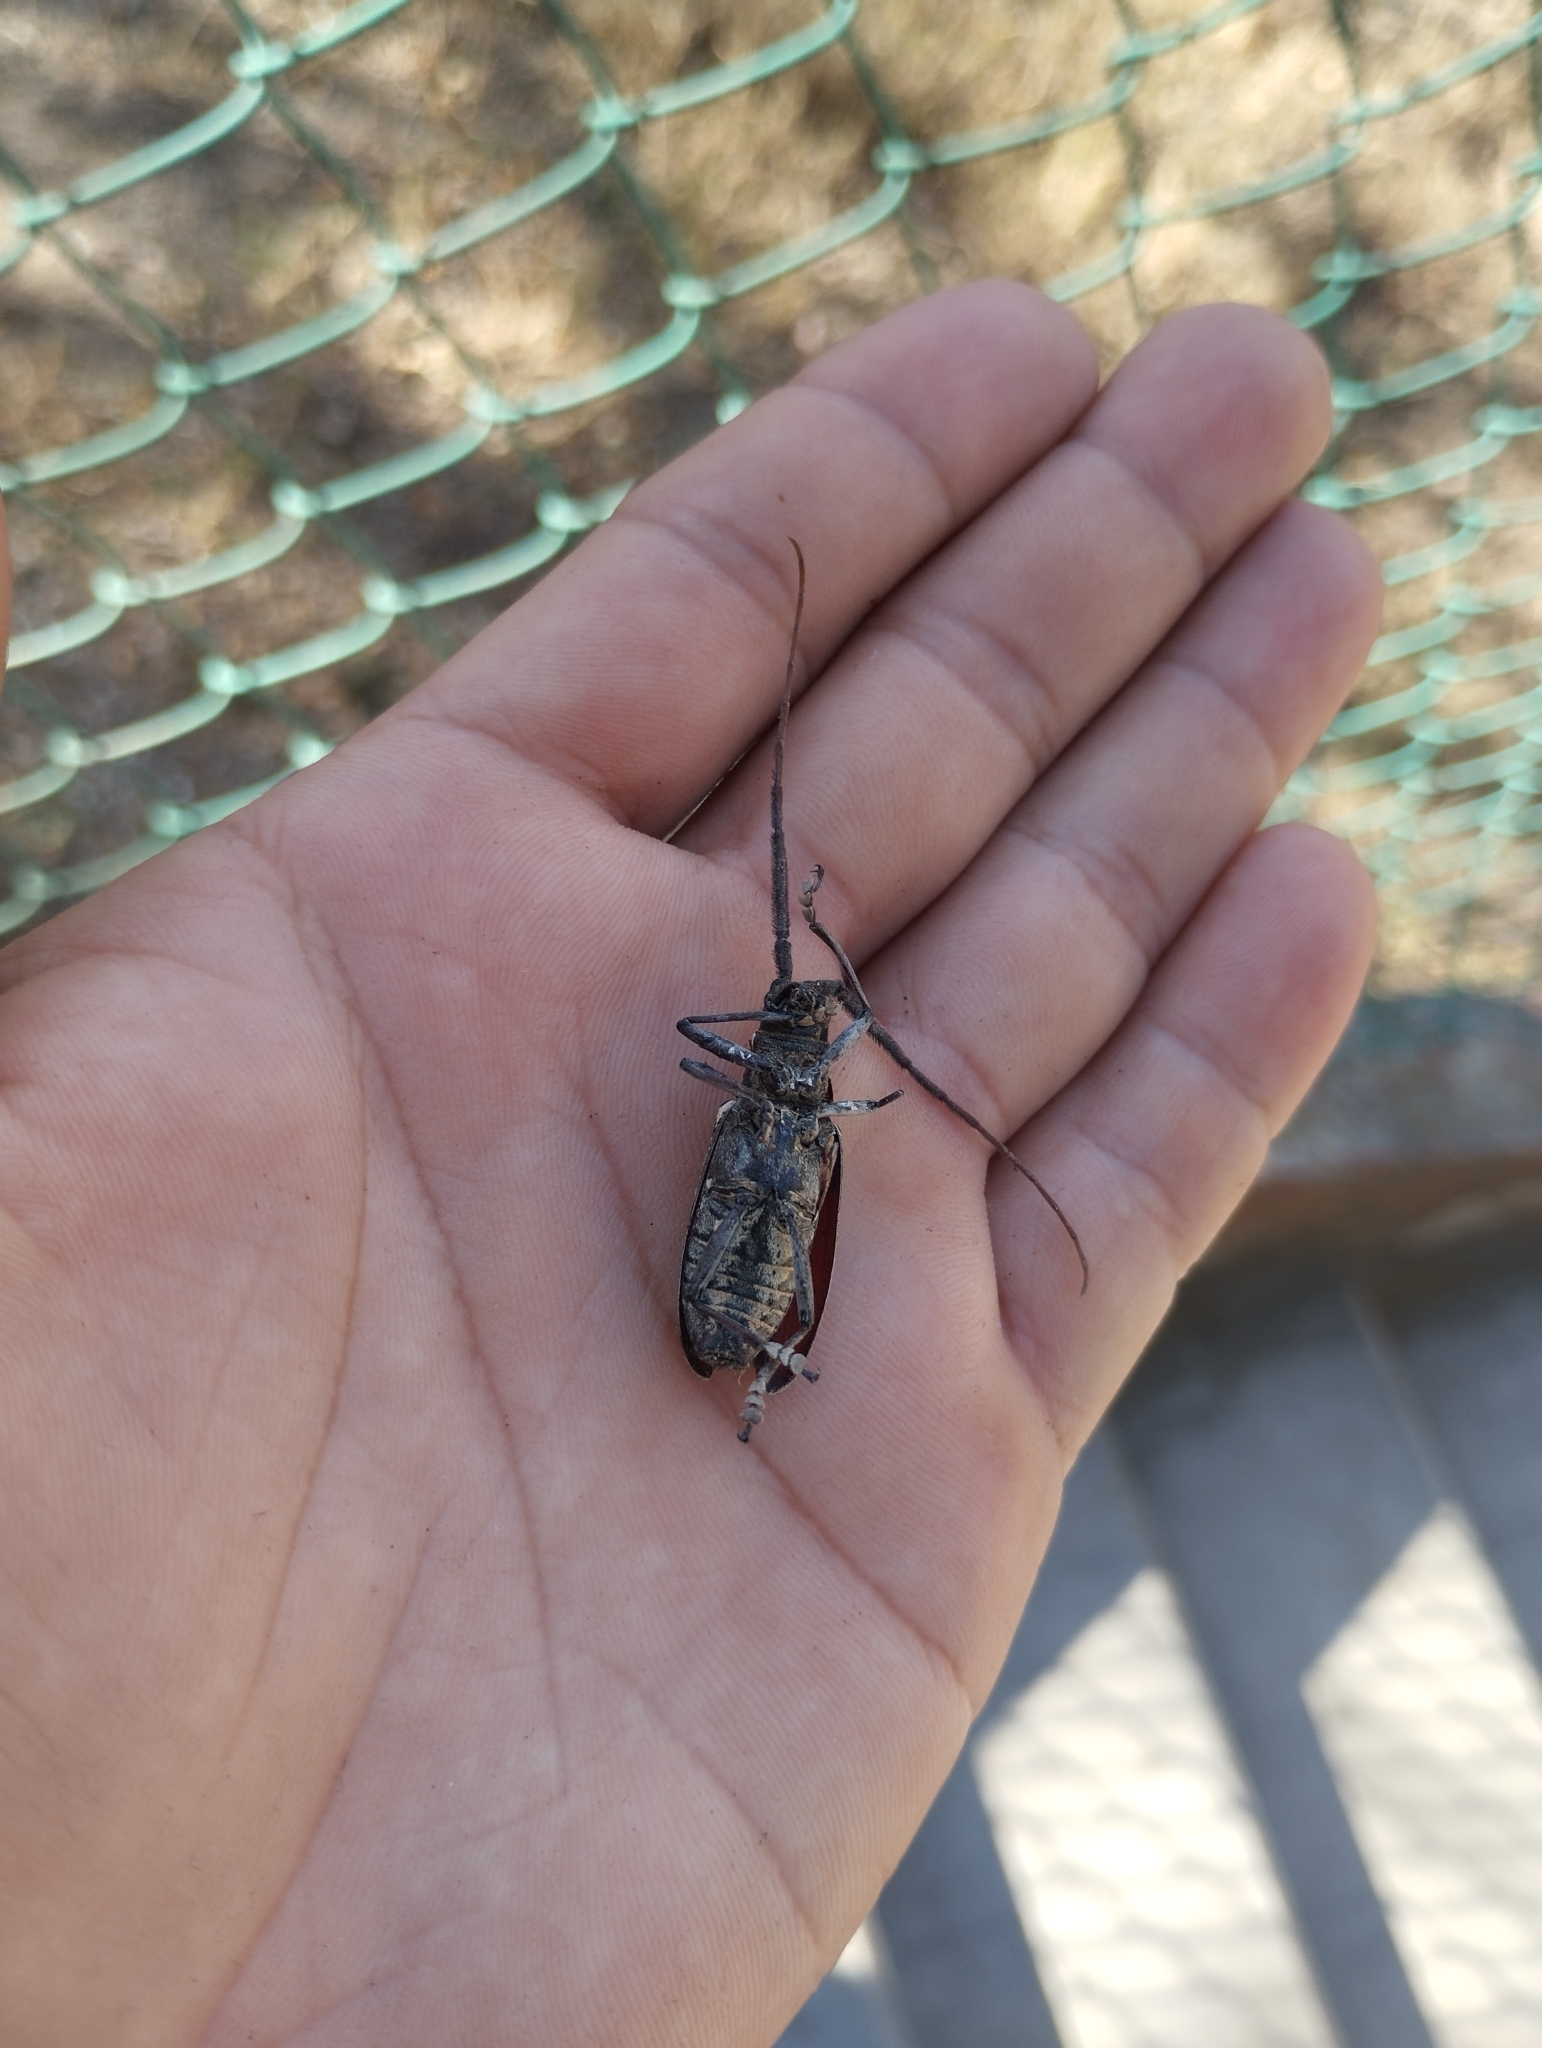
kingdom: Animalia
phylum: Arthropoda
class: Insecta
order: Coleoptera
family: Cerambycidae
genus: Chyptodes
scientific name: Chyptodes dejeanii
